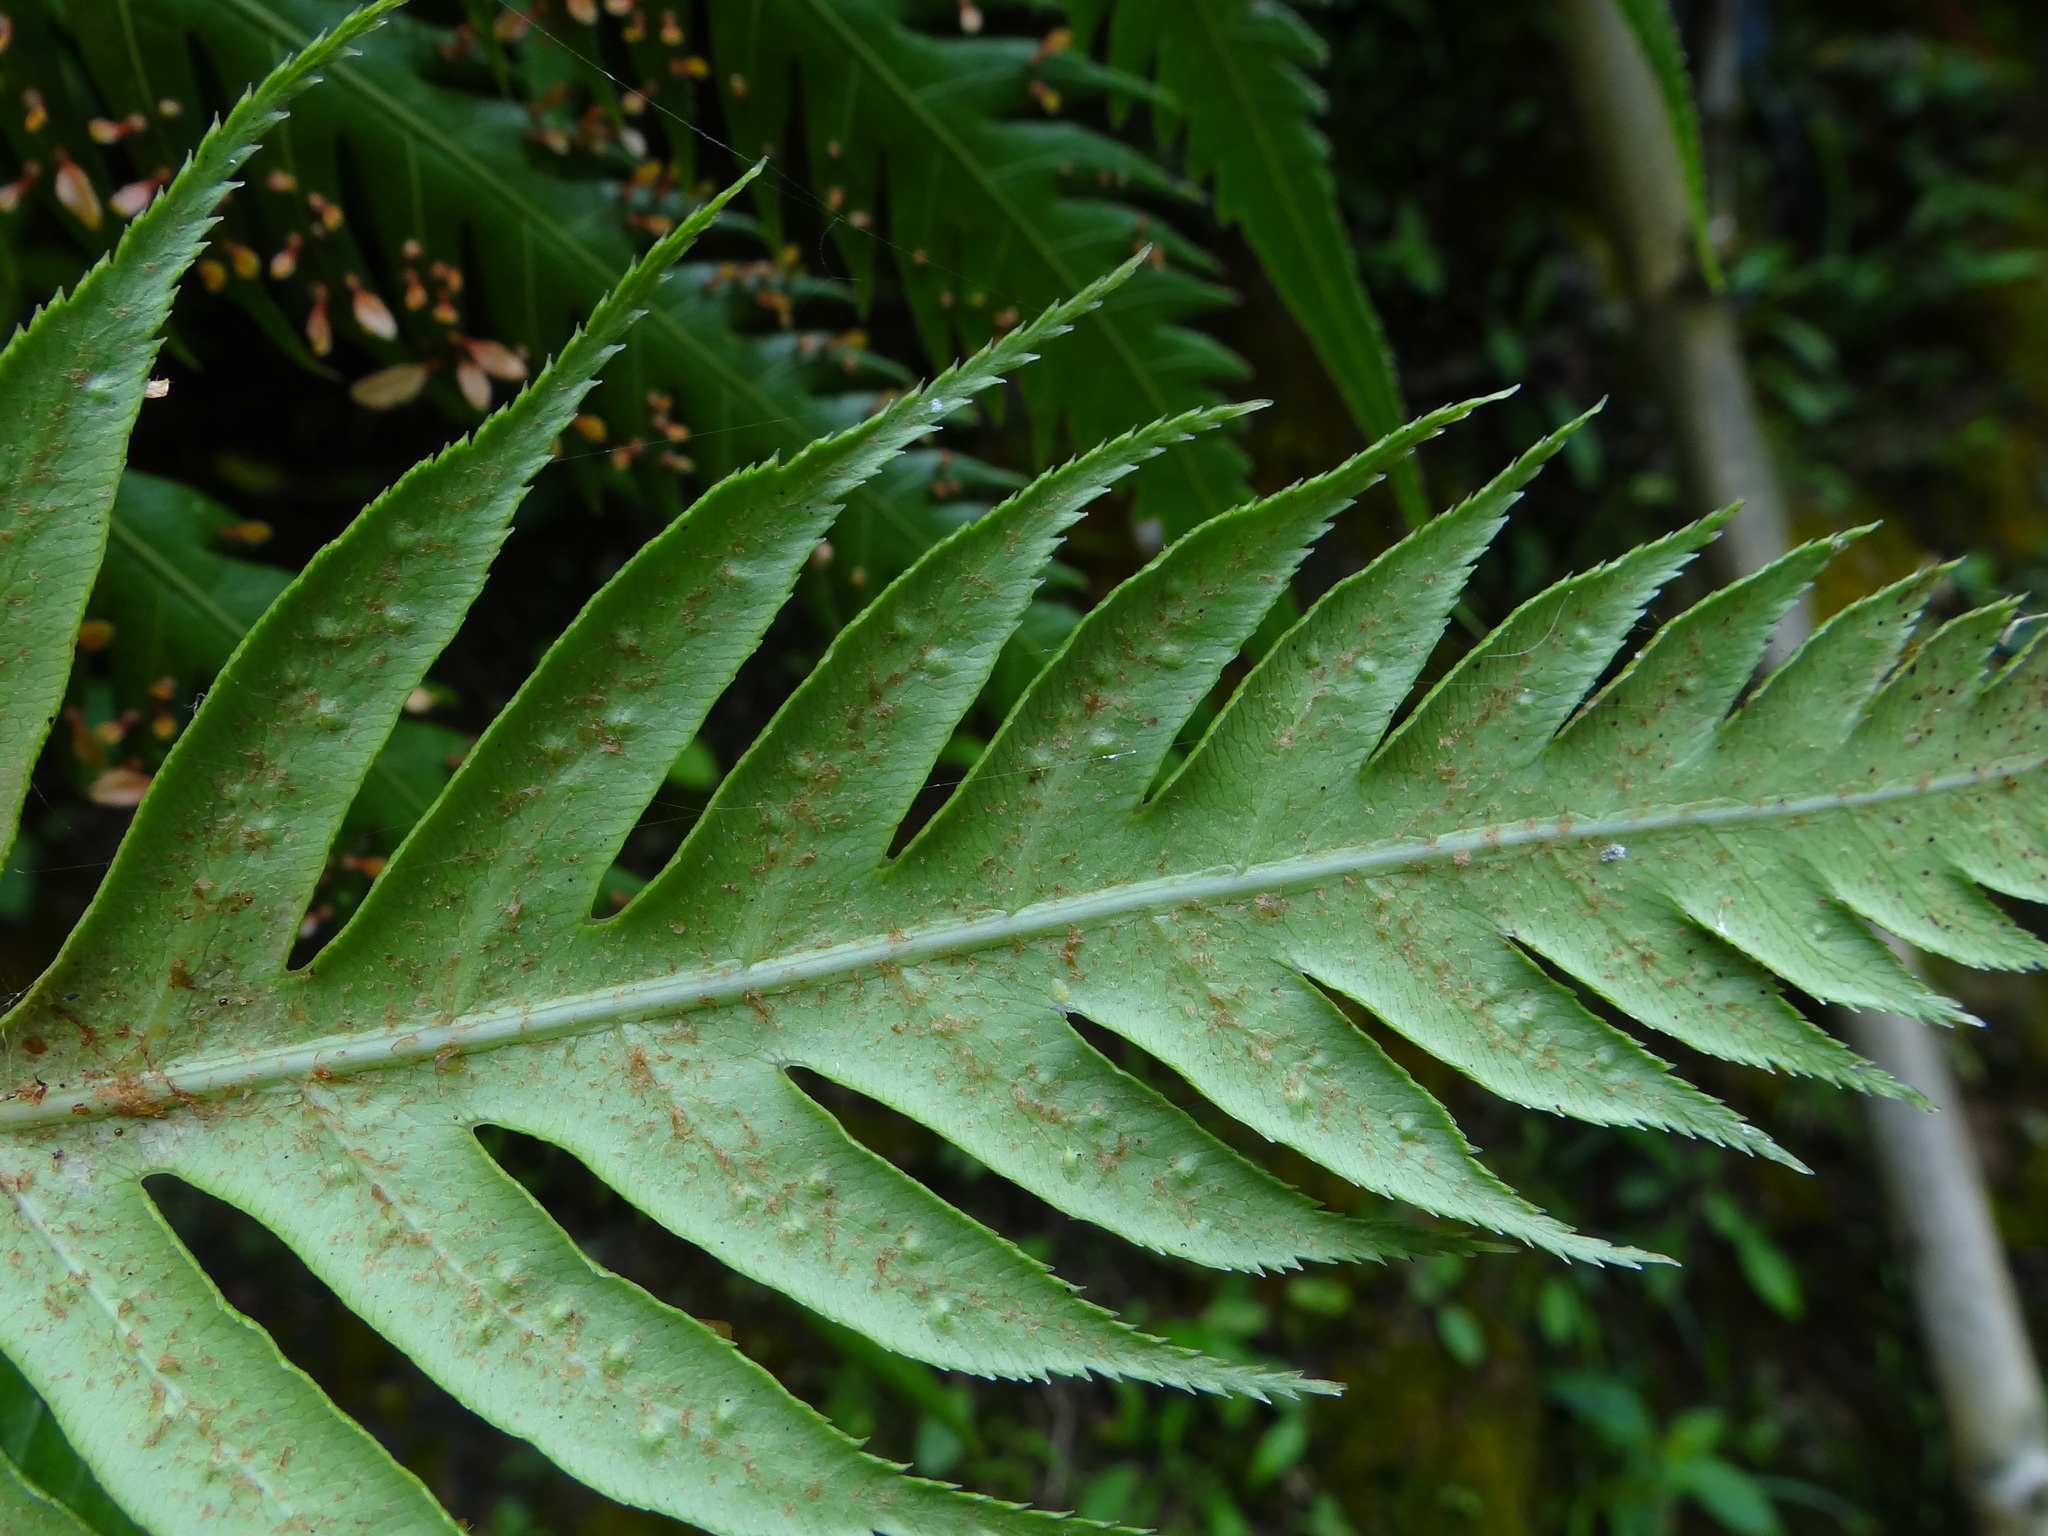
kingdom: Plantae
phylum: Tracheophyta
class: Polypodiopsida
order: Polypodiales
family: Blechnaceae
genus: Woodwardia
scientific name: Woodwardia prolifera
